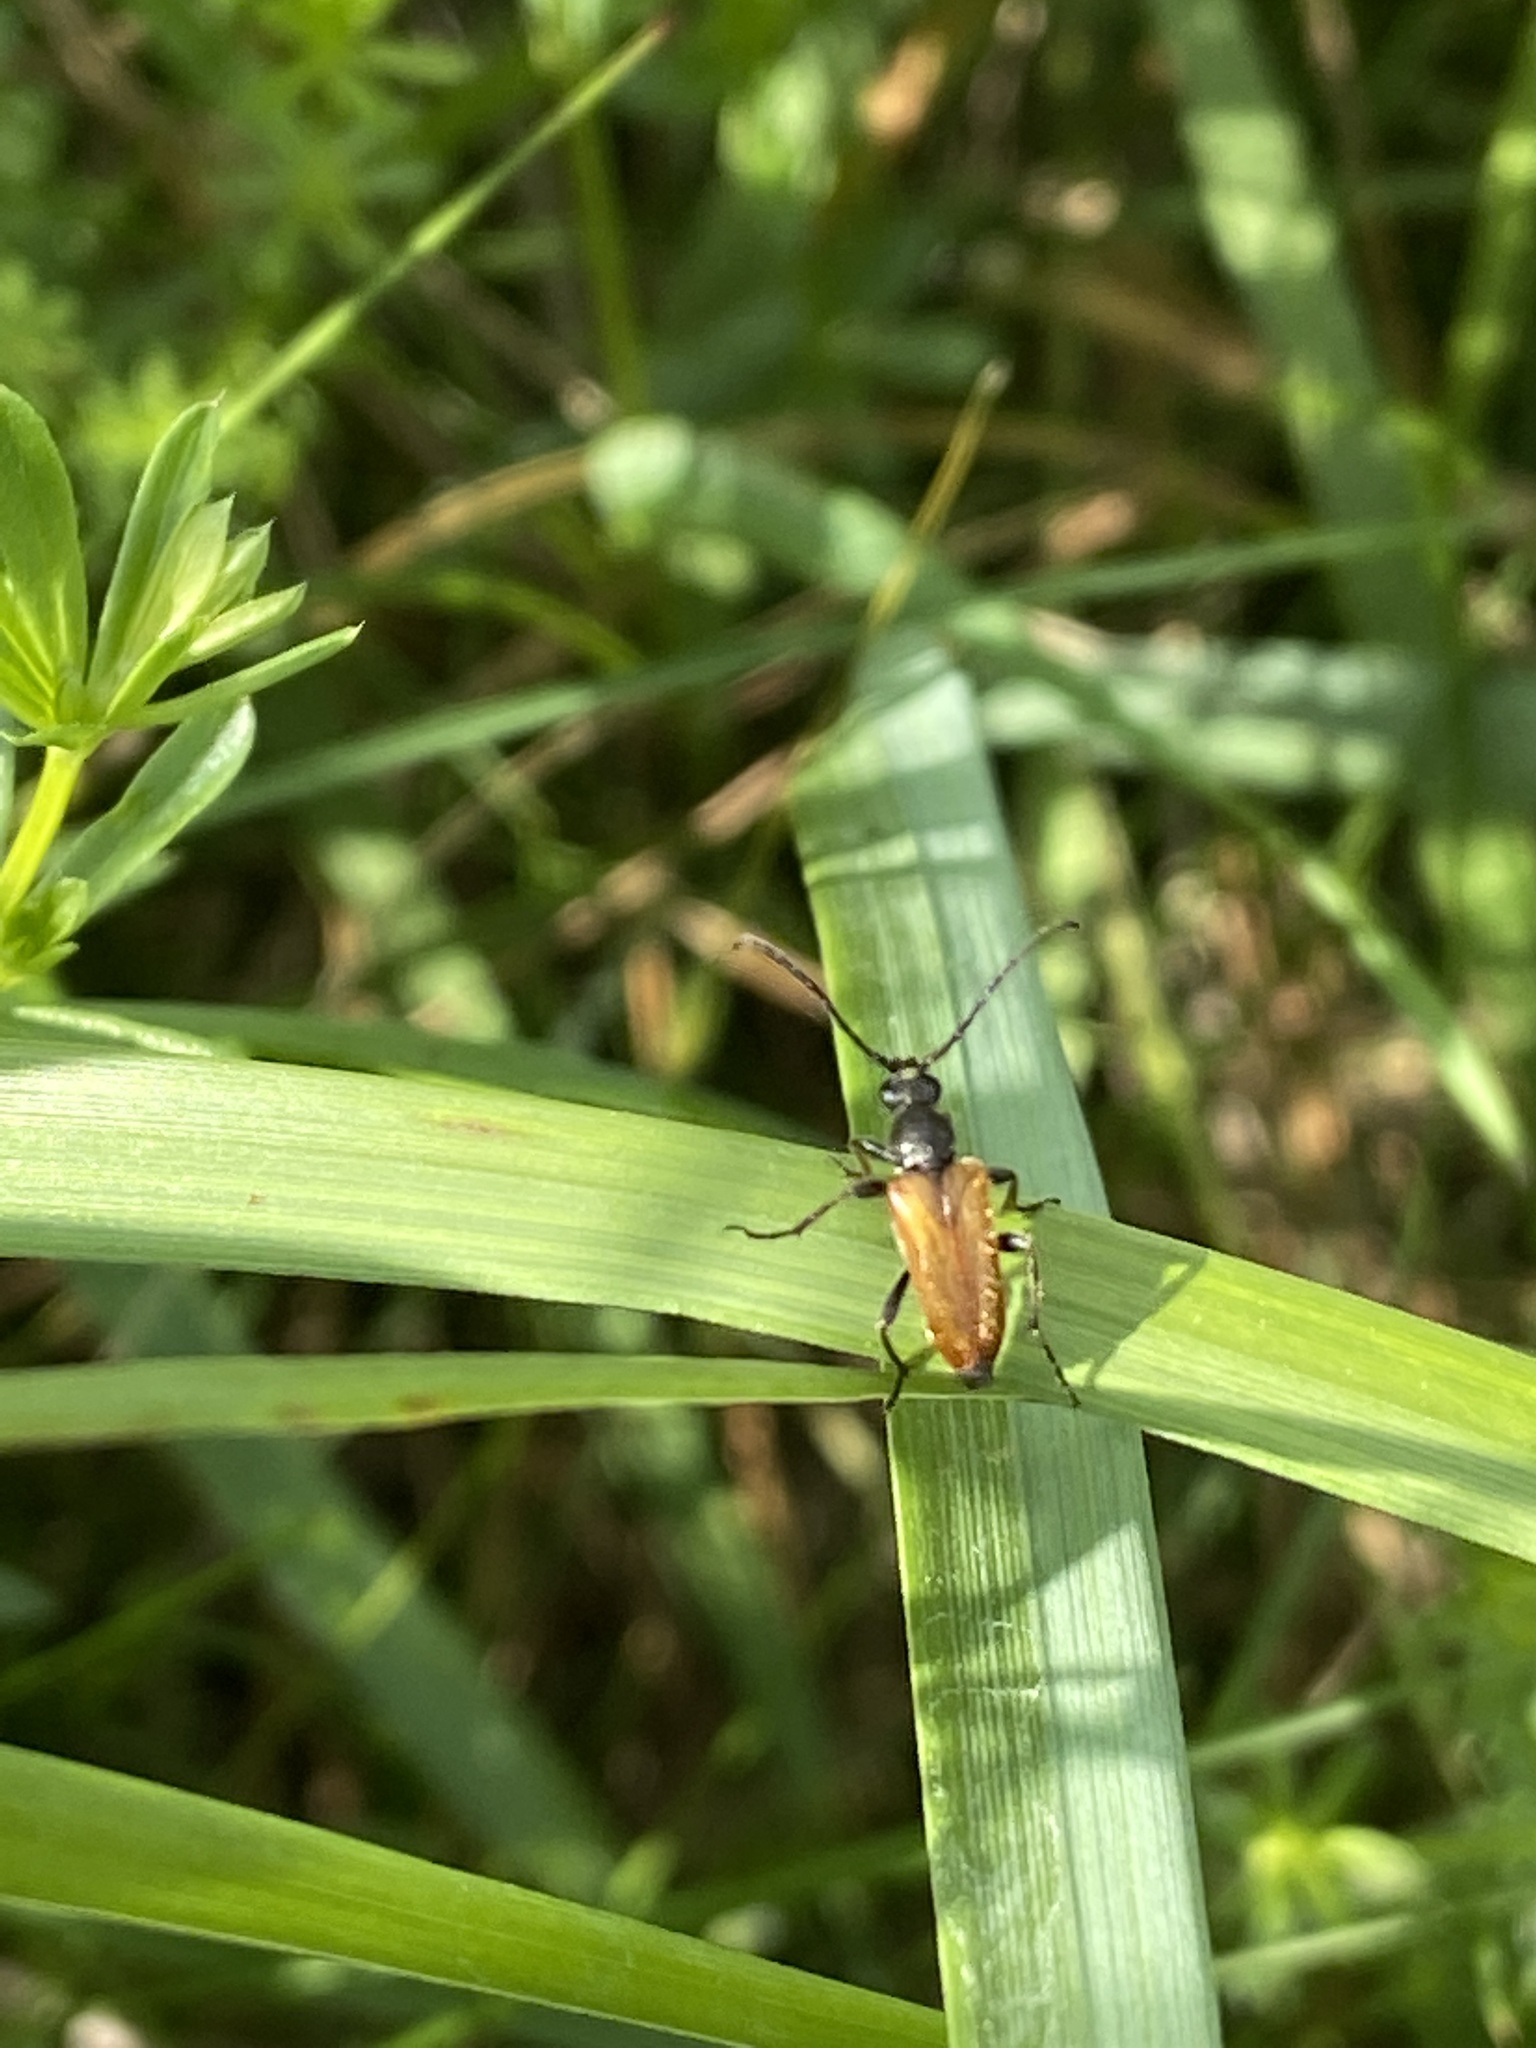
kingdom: Animalia
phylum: Arthropoda
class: Insecta
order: Coleoptera
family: Cerambycidae
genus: Pseudovadonia
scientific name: Pseudovadonia livida
